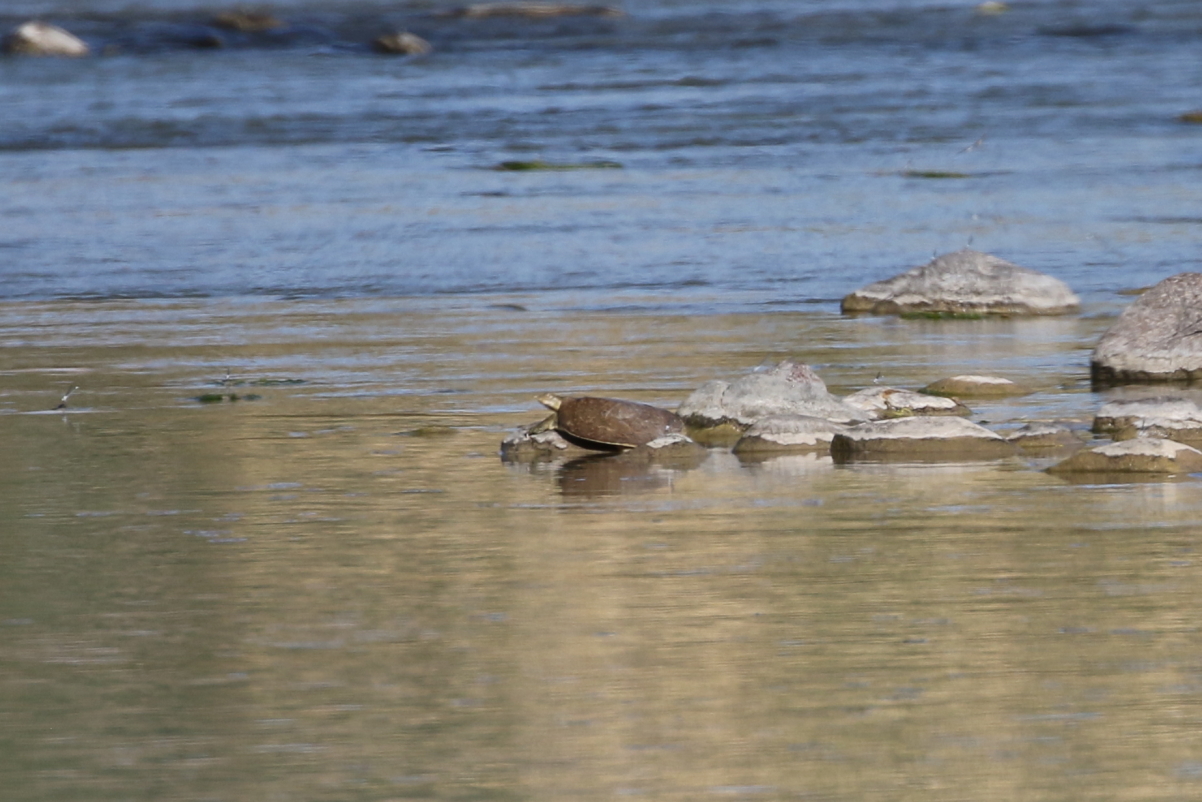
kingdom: Animalia
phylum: Chordata
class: Testudines
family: Trionychidae
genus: Apalone
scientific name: Apalone spinifera
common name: Spiny softshell turtle
